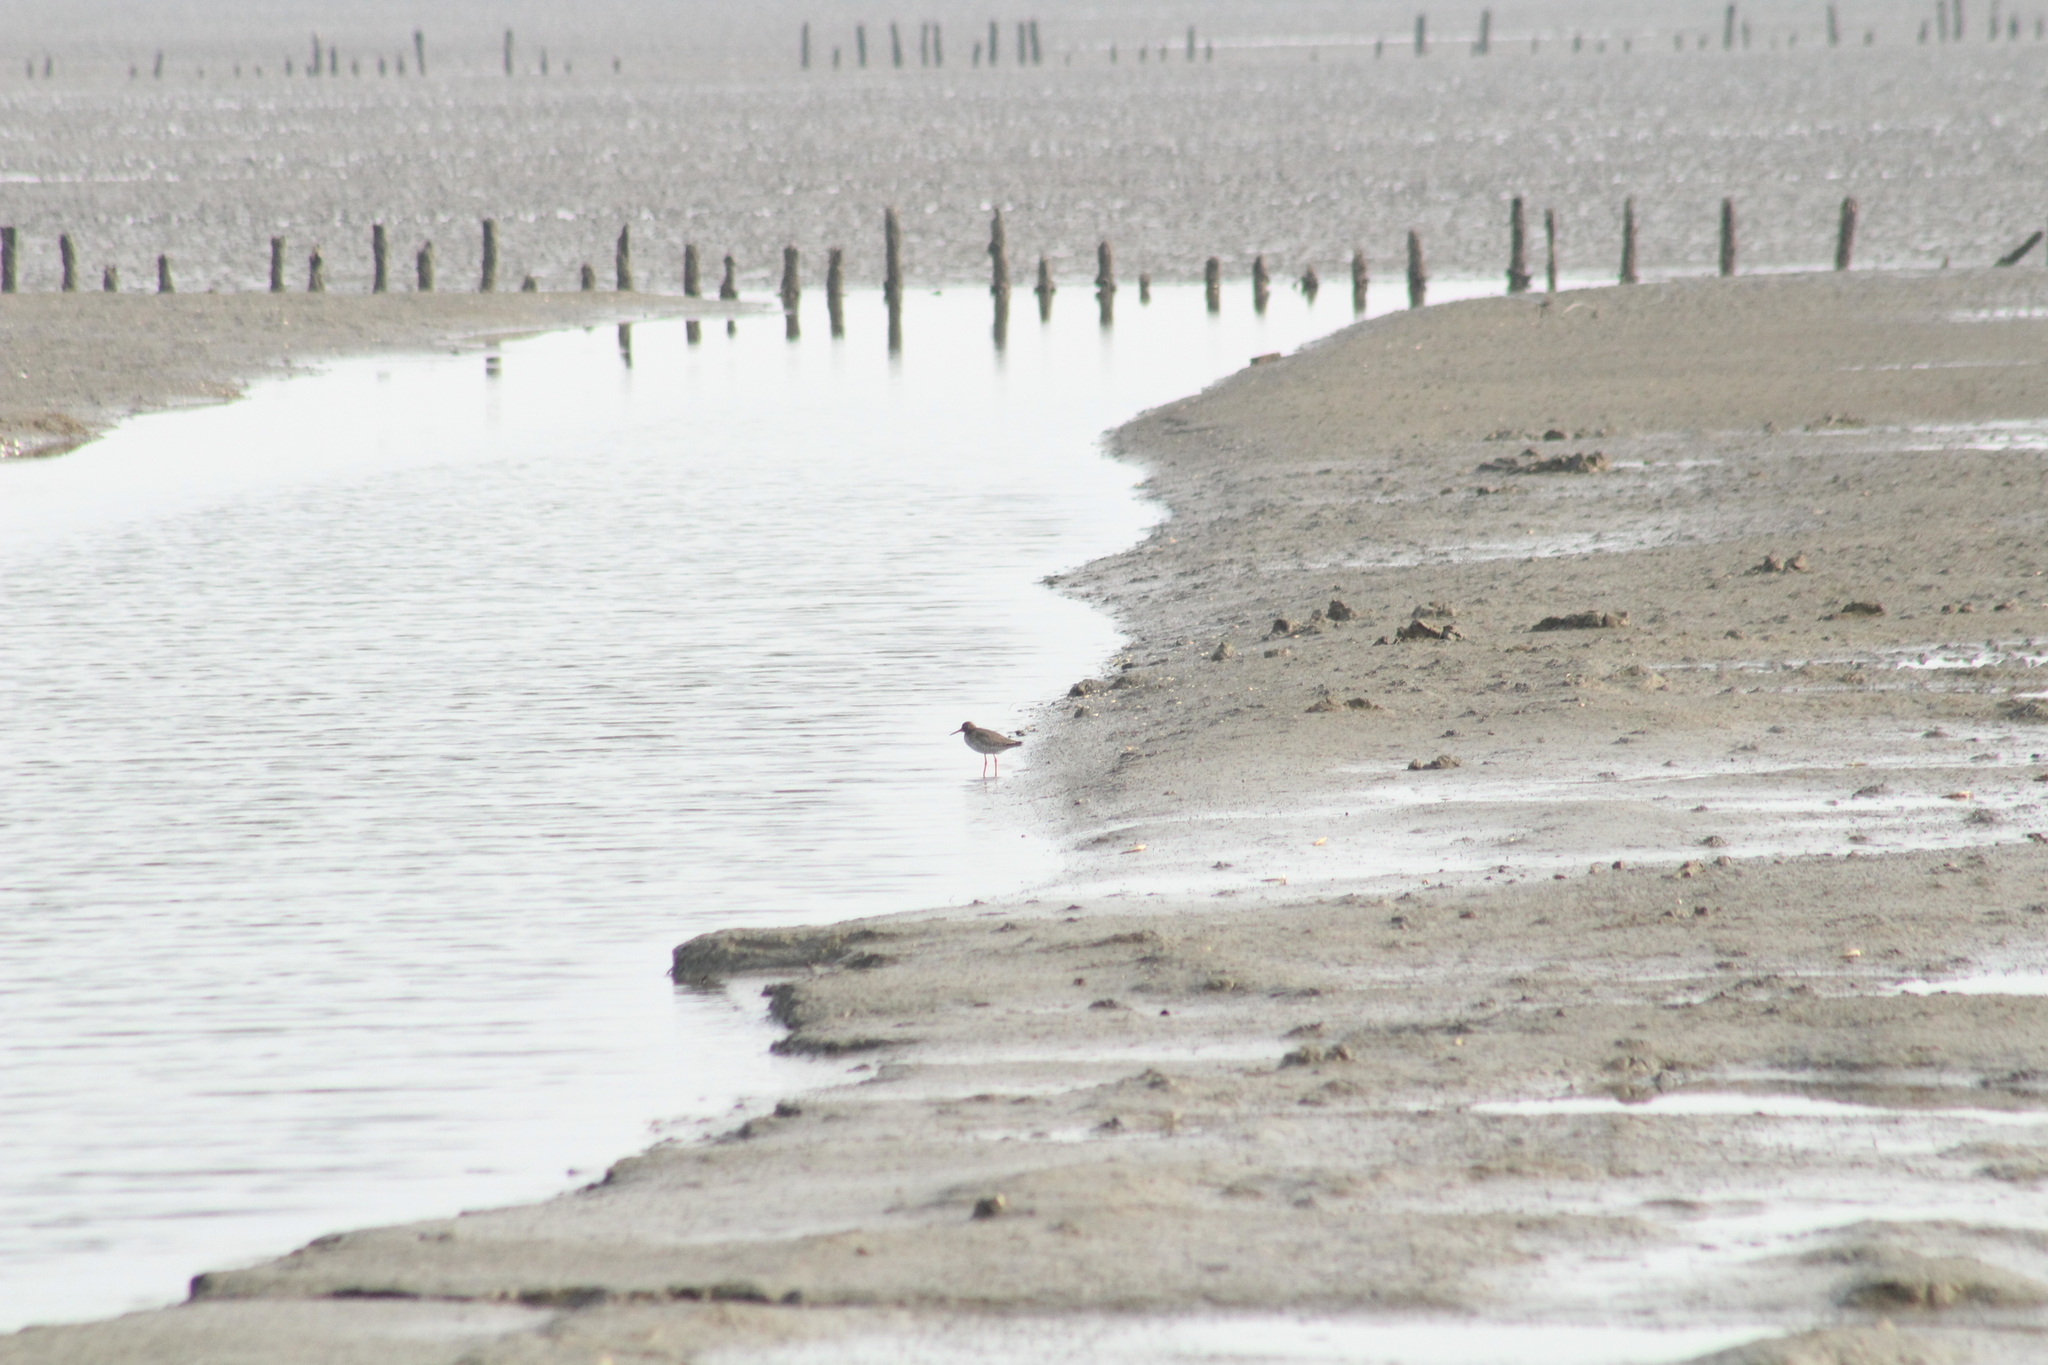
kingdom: Animalia
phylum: Chordata
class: Aves
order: Charadriiformes
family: Scolopacidae
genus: Tringa
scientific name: Tringa totanus
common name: Common redshank
